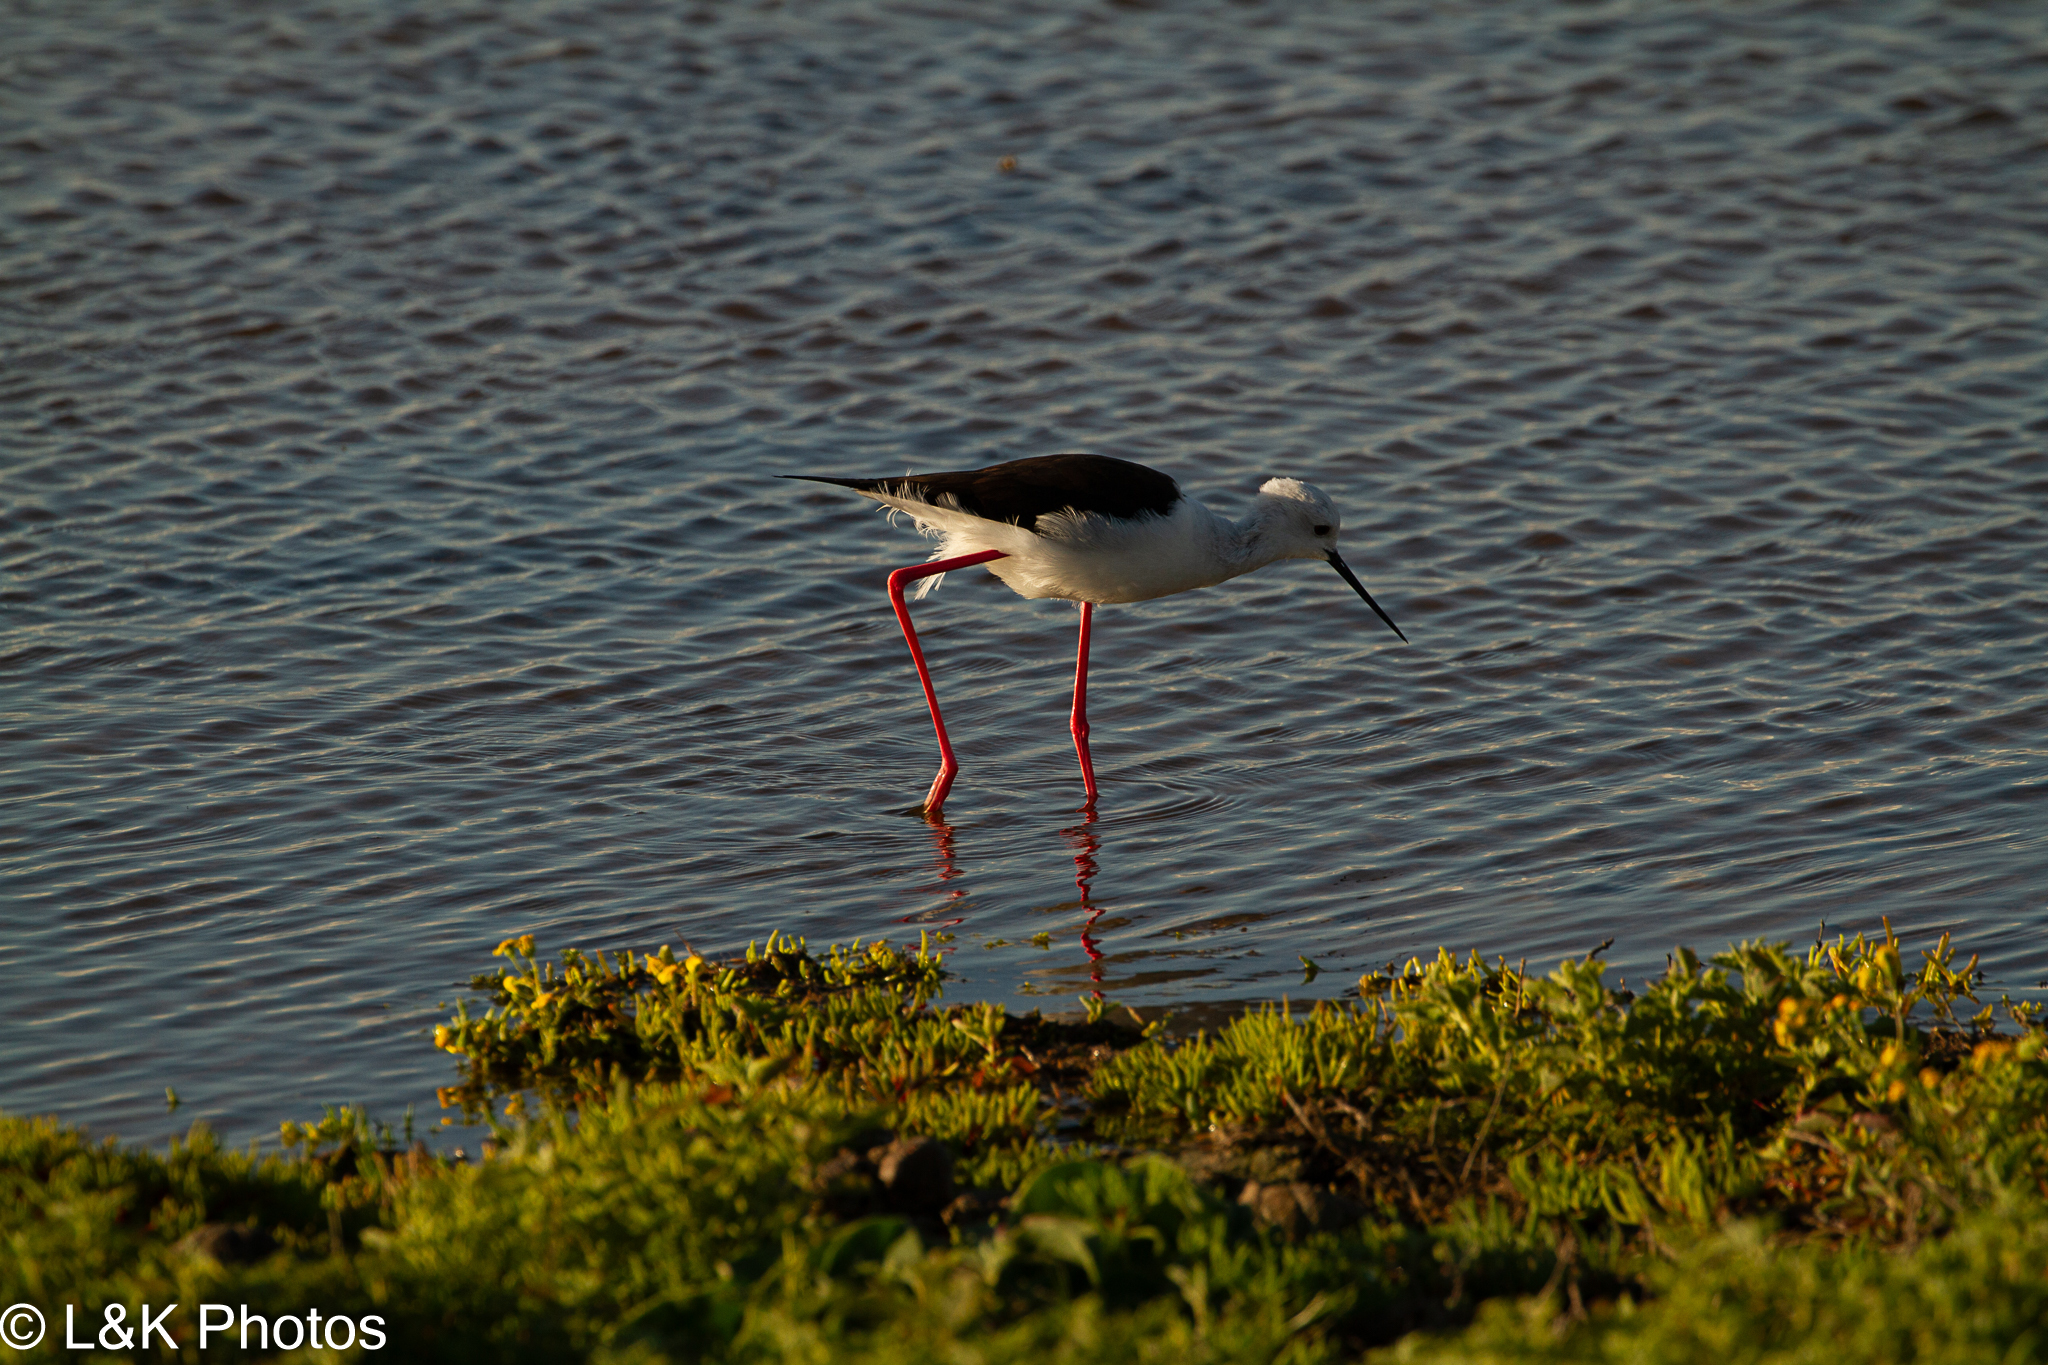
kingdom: Animalia
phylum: Chordata
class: Aves
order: Charadriiformes
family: Recurvirostridae
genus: Himantopus
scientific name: Himantopus himantopus
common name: Black-winged stilt
